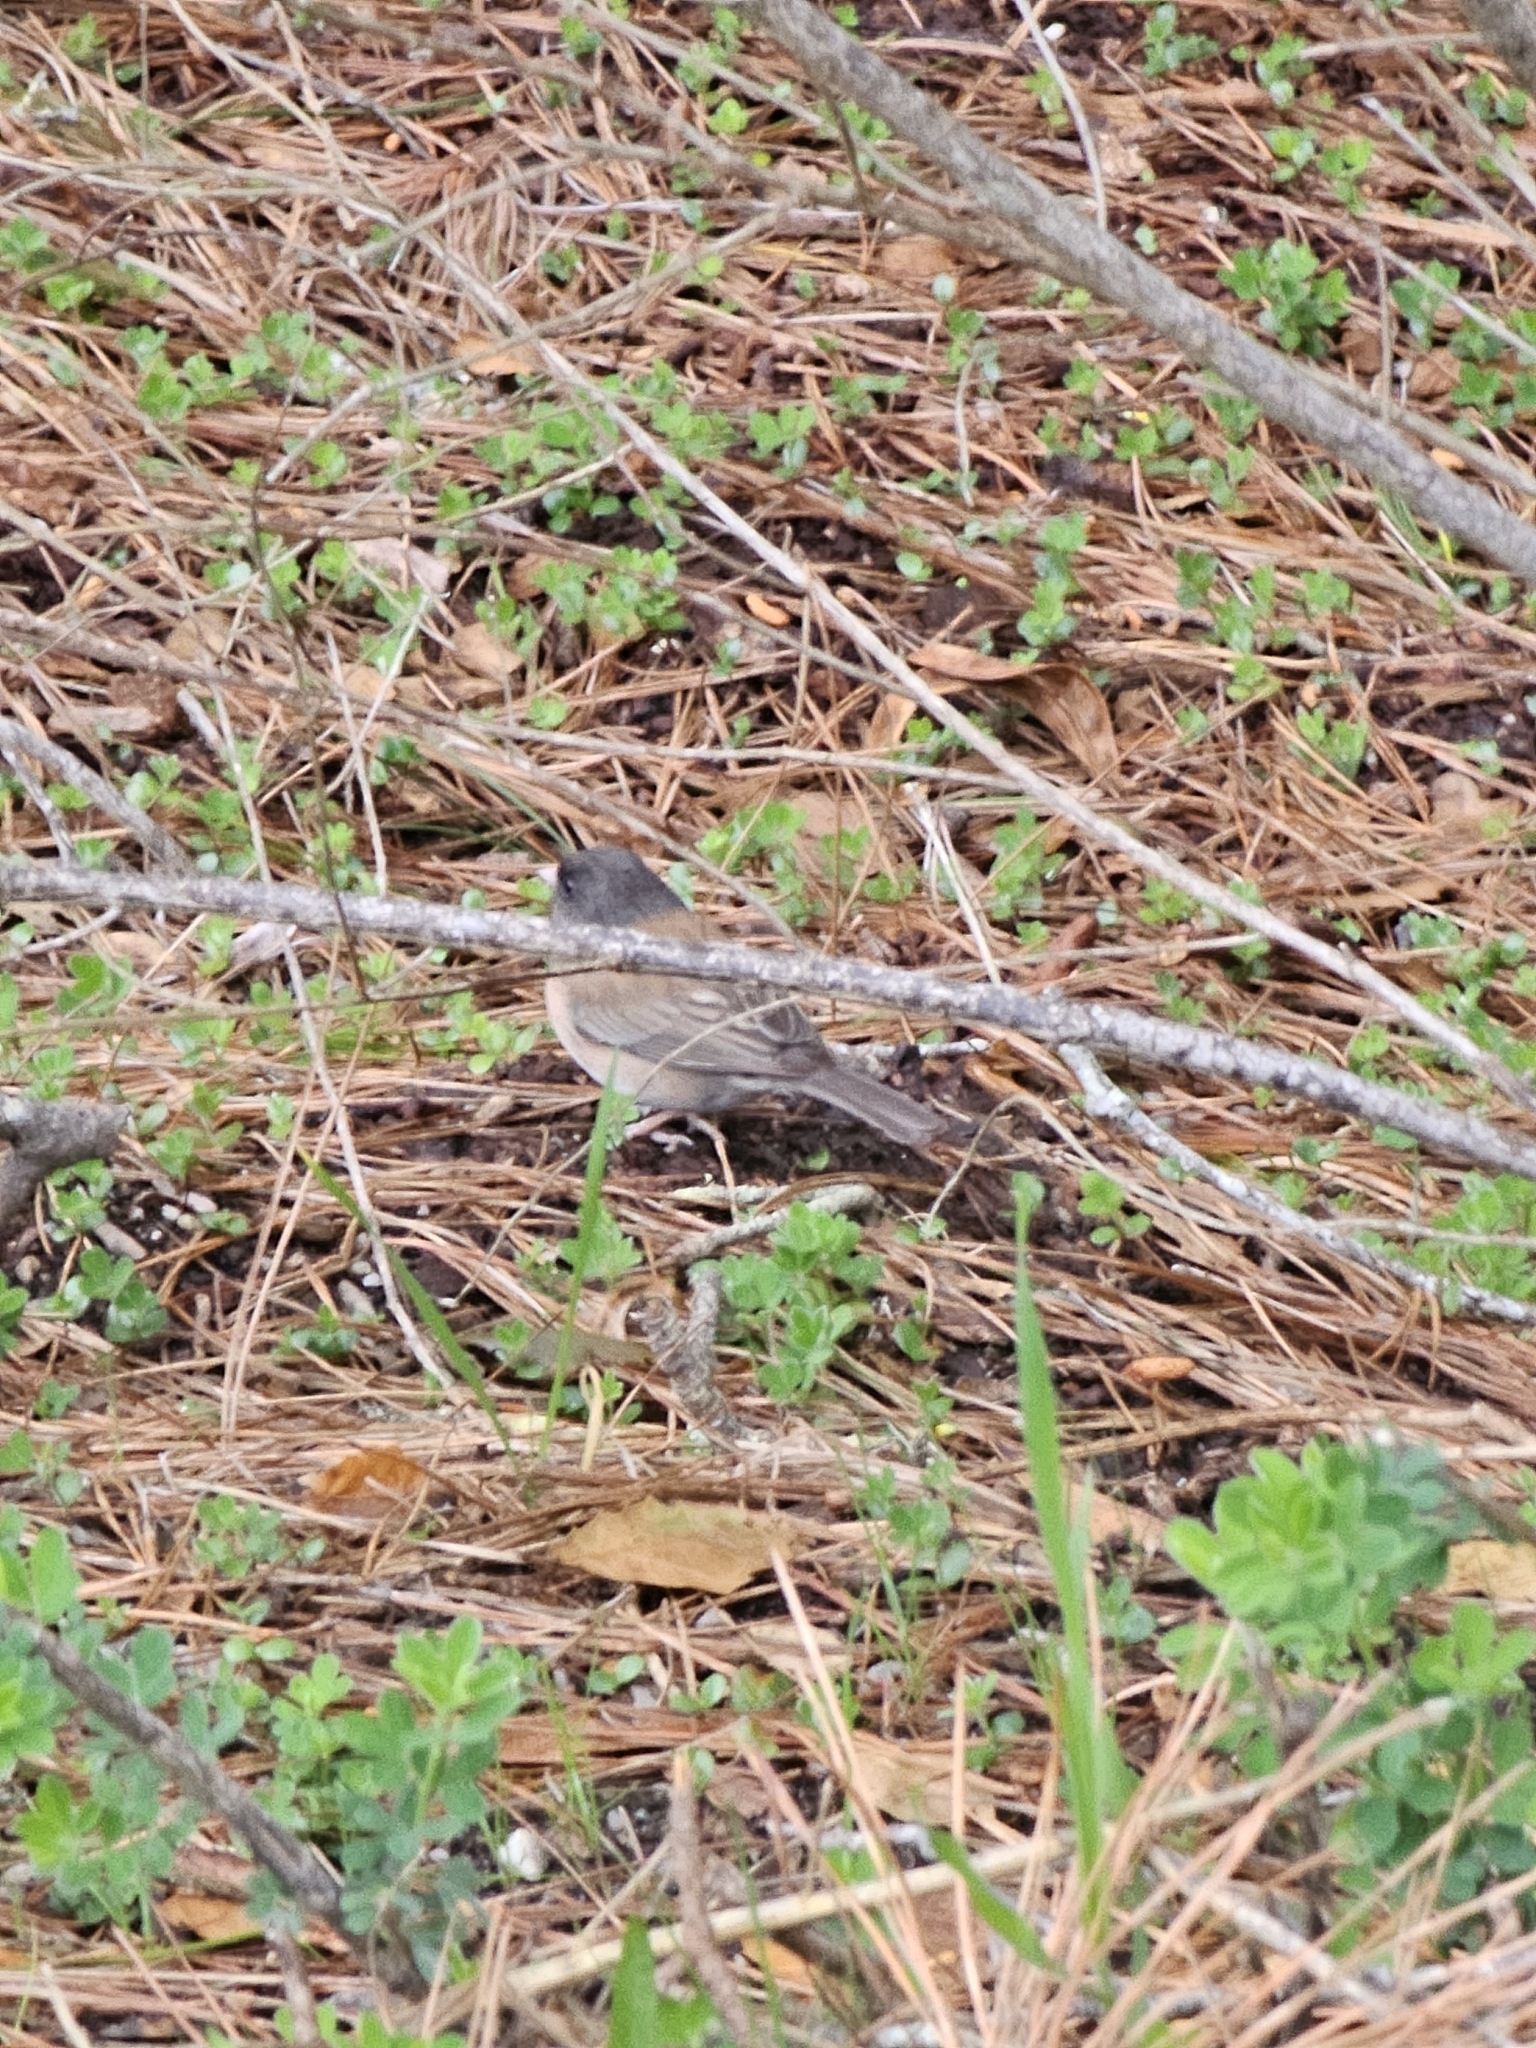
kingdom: Animalia
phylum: Chordata
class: Aves
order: Passeriformes
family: Passerellidae
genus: Junco
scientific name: Junco hyemalis
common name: Dark-eyed junco
